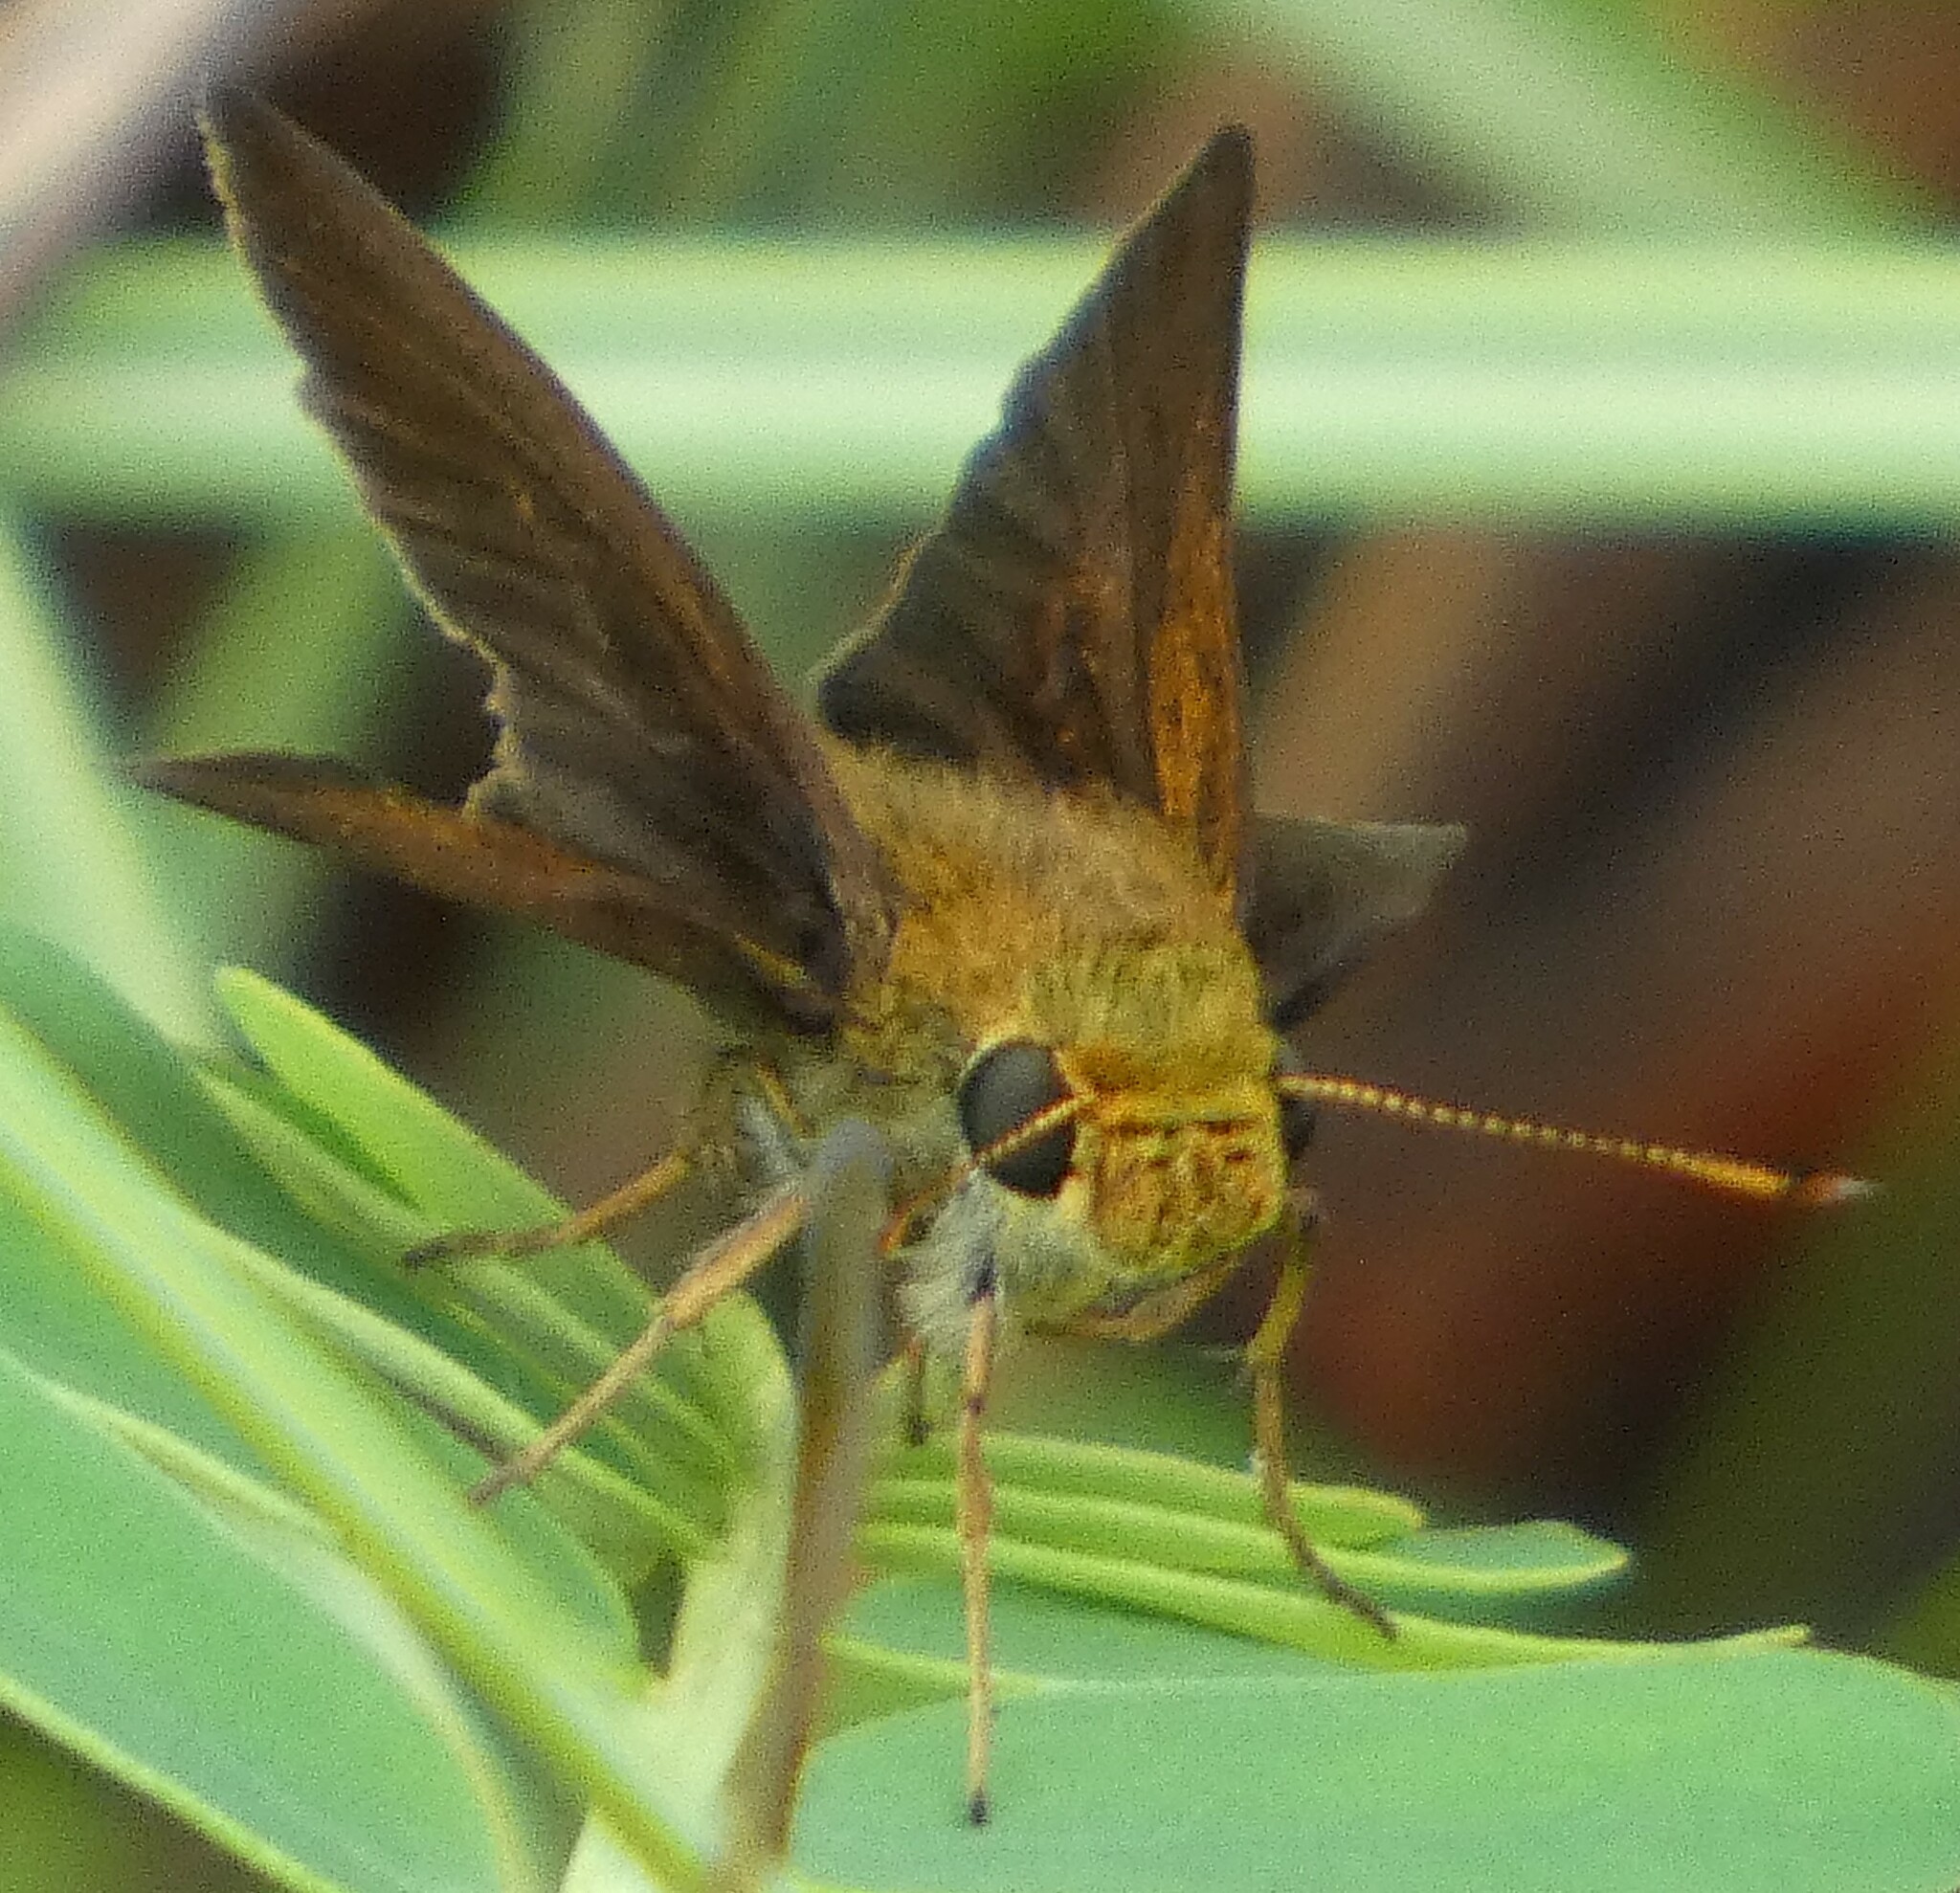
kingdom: Animalia
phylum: Arthropoda
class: Insecta
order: Lepidoptera
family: Hesperiidae
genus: Euphyes
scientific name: Euphyes vestris
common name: Dun skipper
